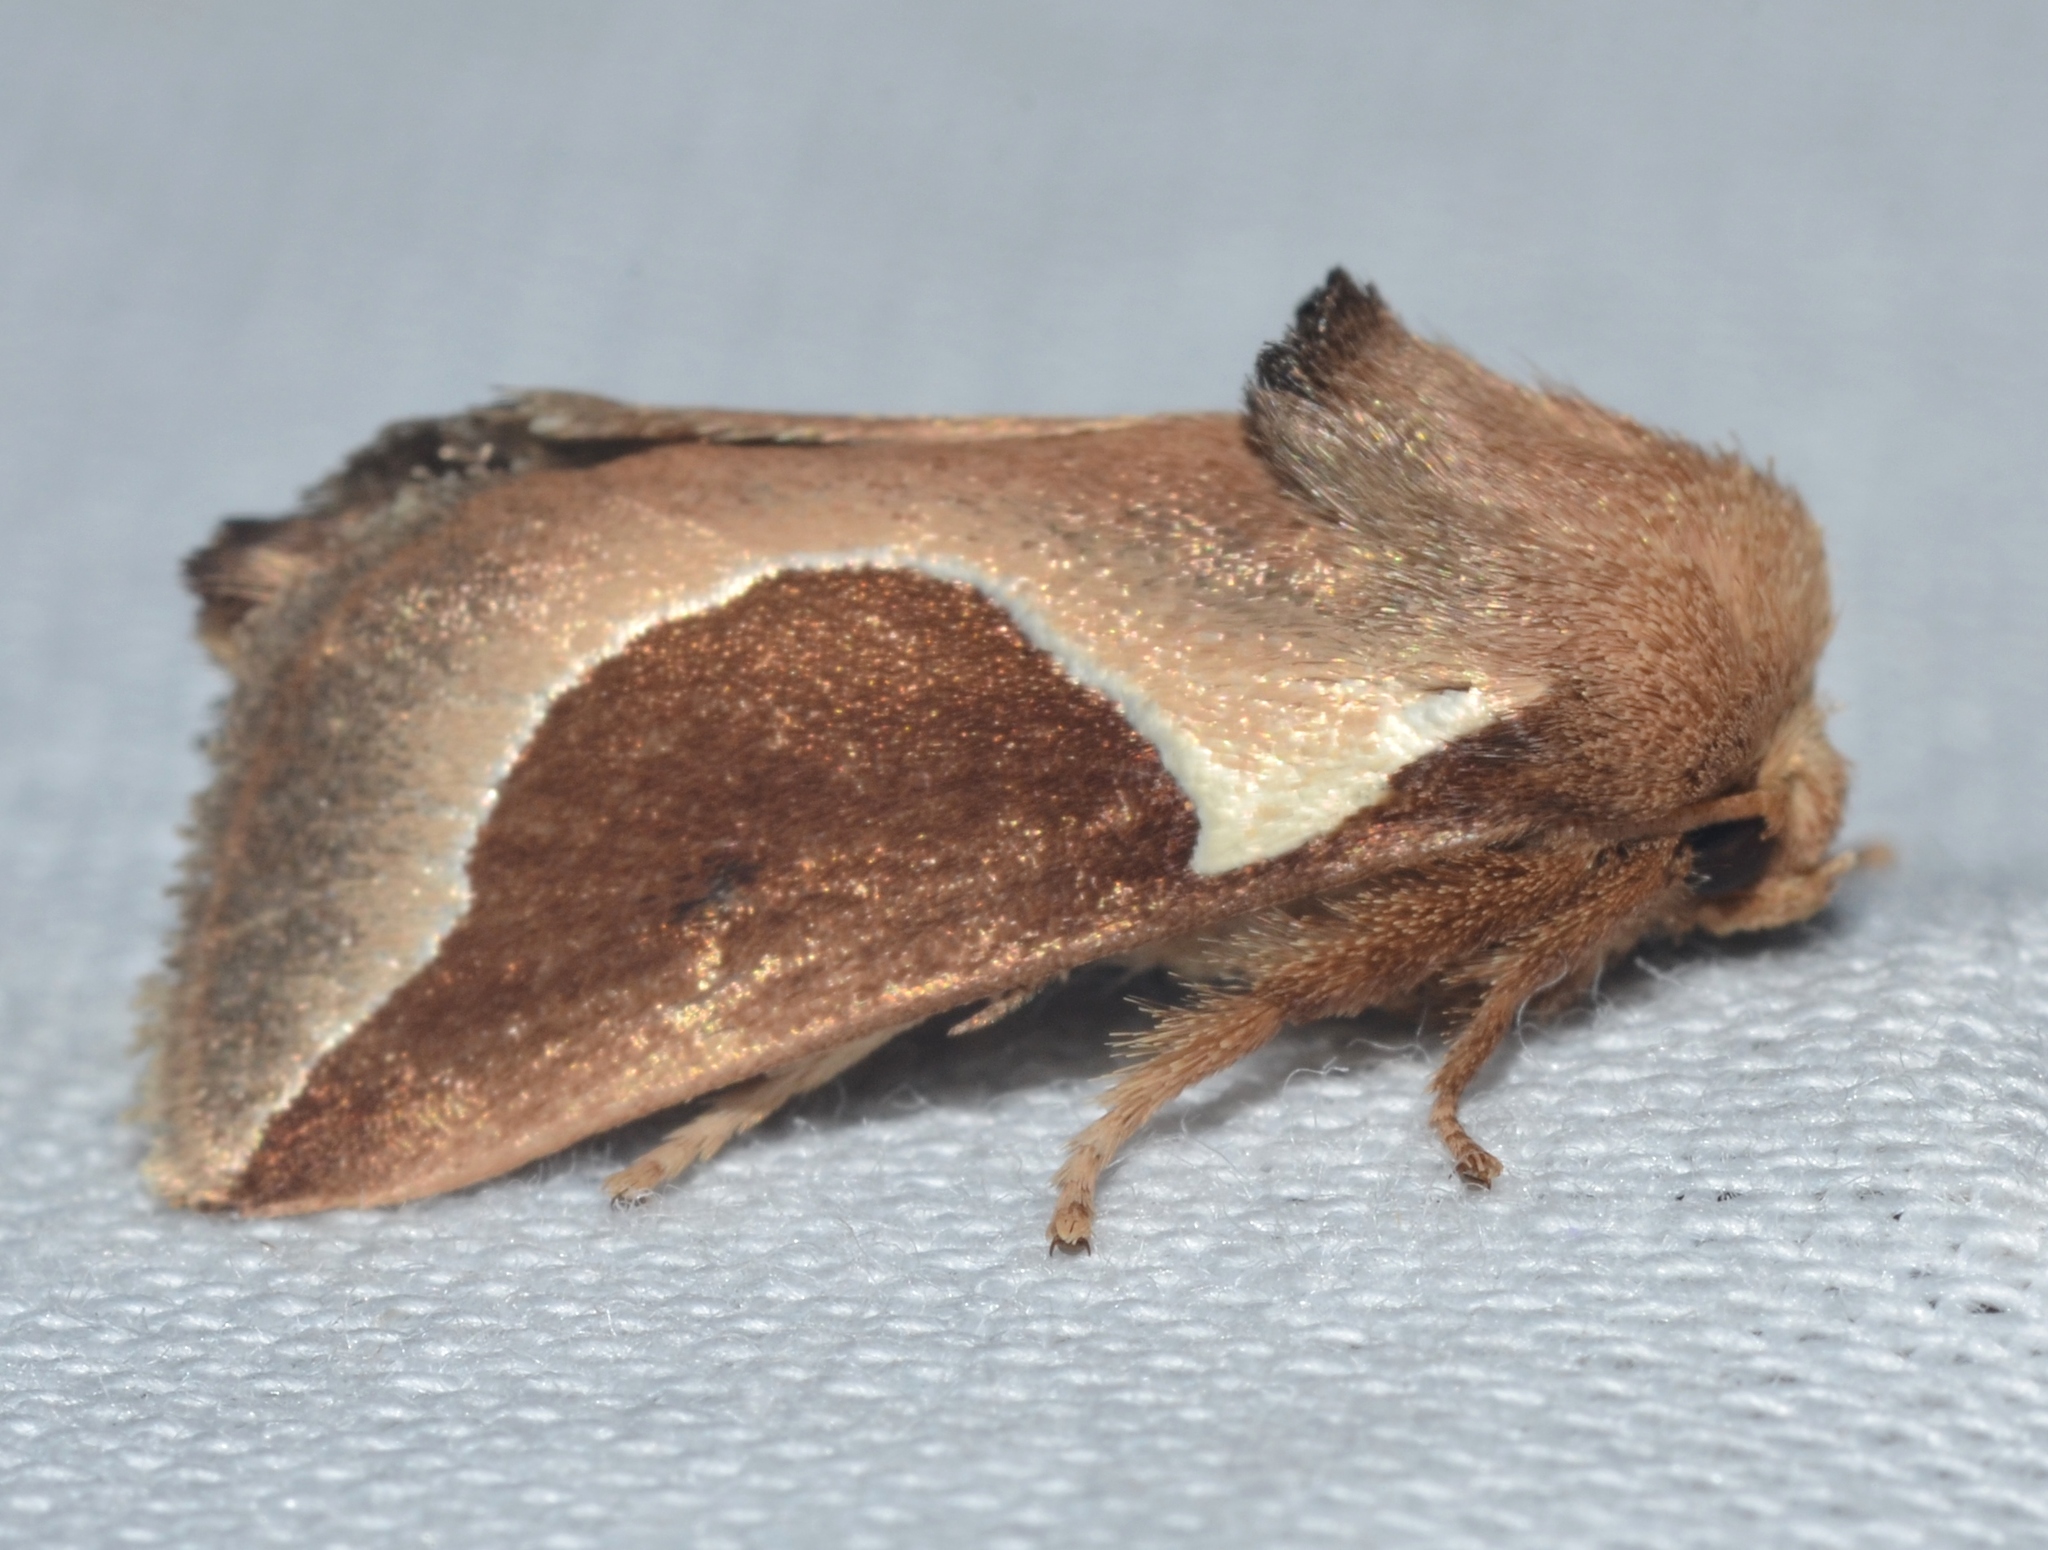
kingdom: Animalia
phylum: Arthropoda
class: Insecta
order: Lepidoptera
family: Limacodidae
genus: Prolimacodes
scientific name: Prolimacodes badia
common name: Skiff moth
